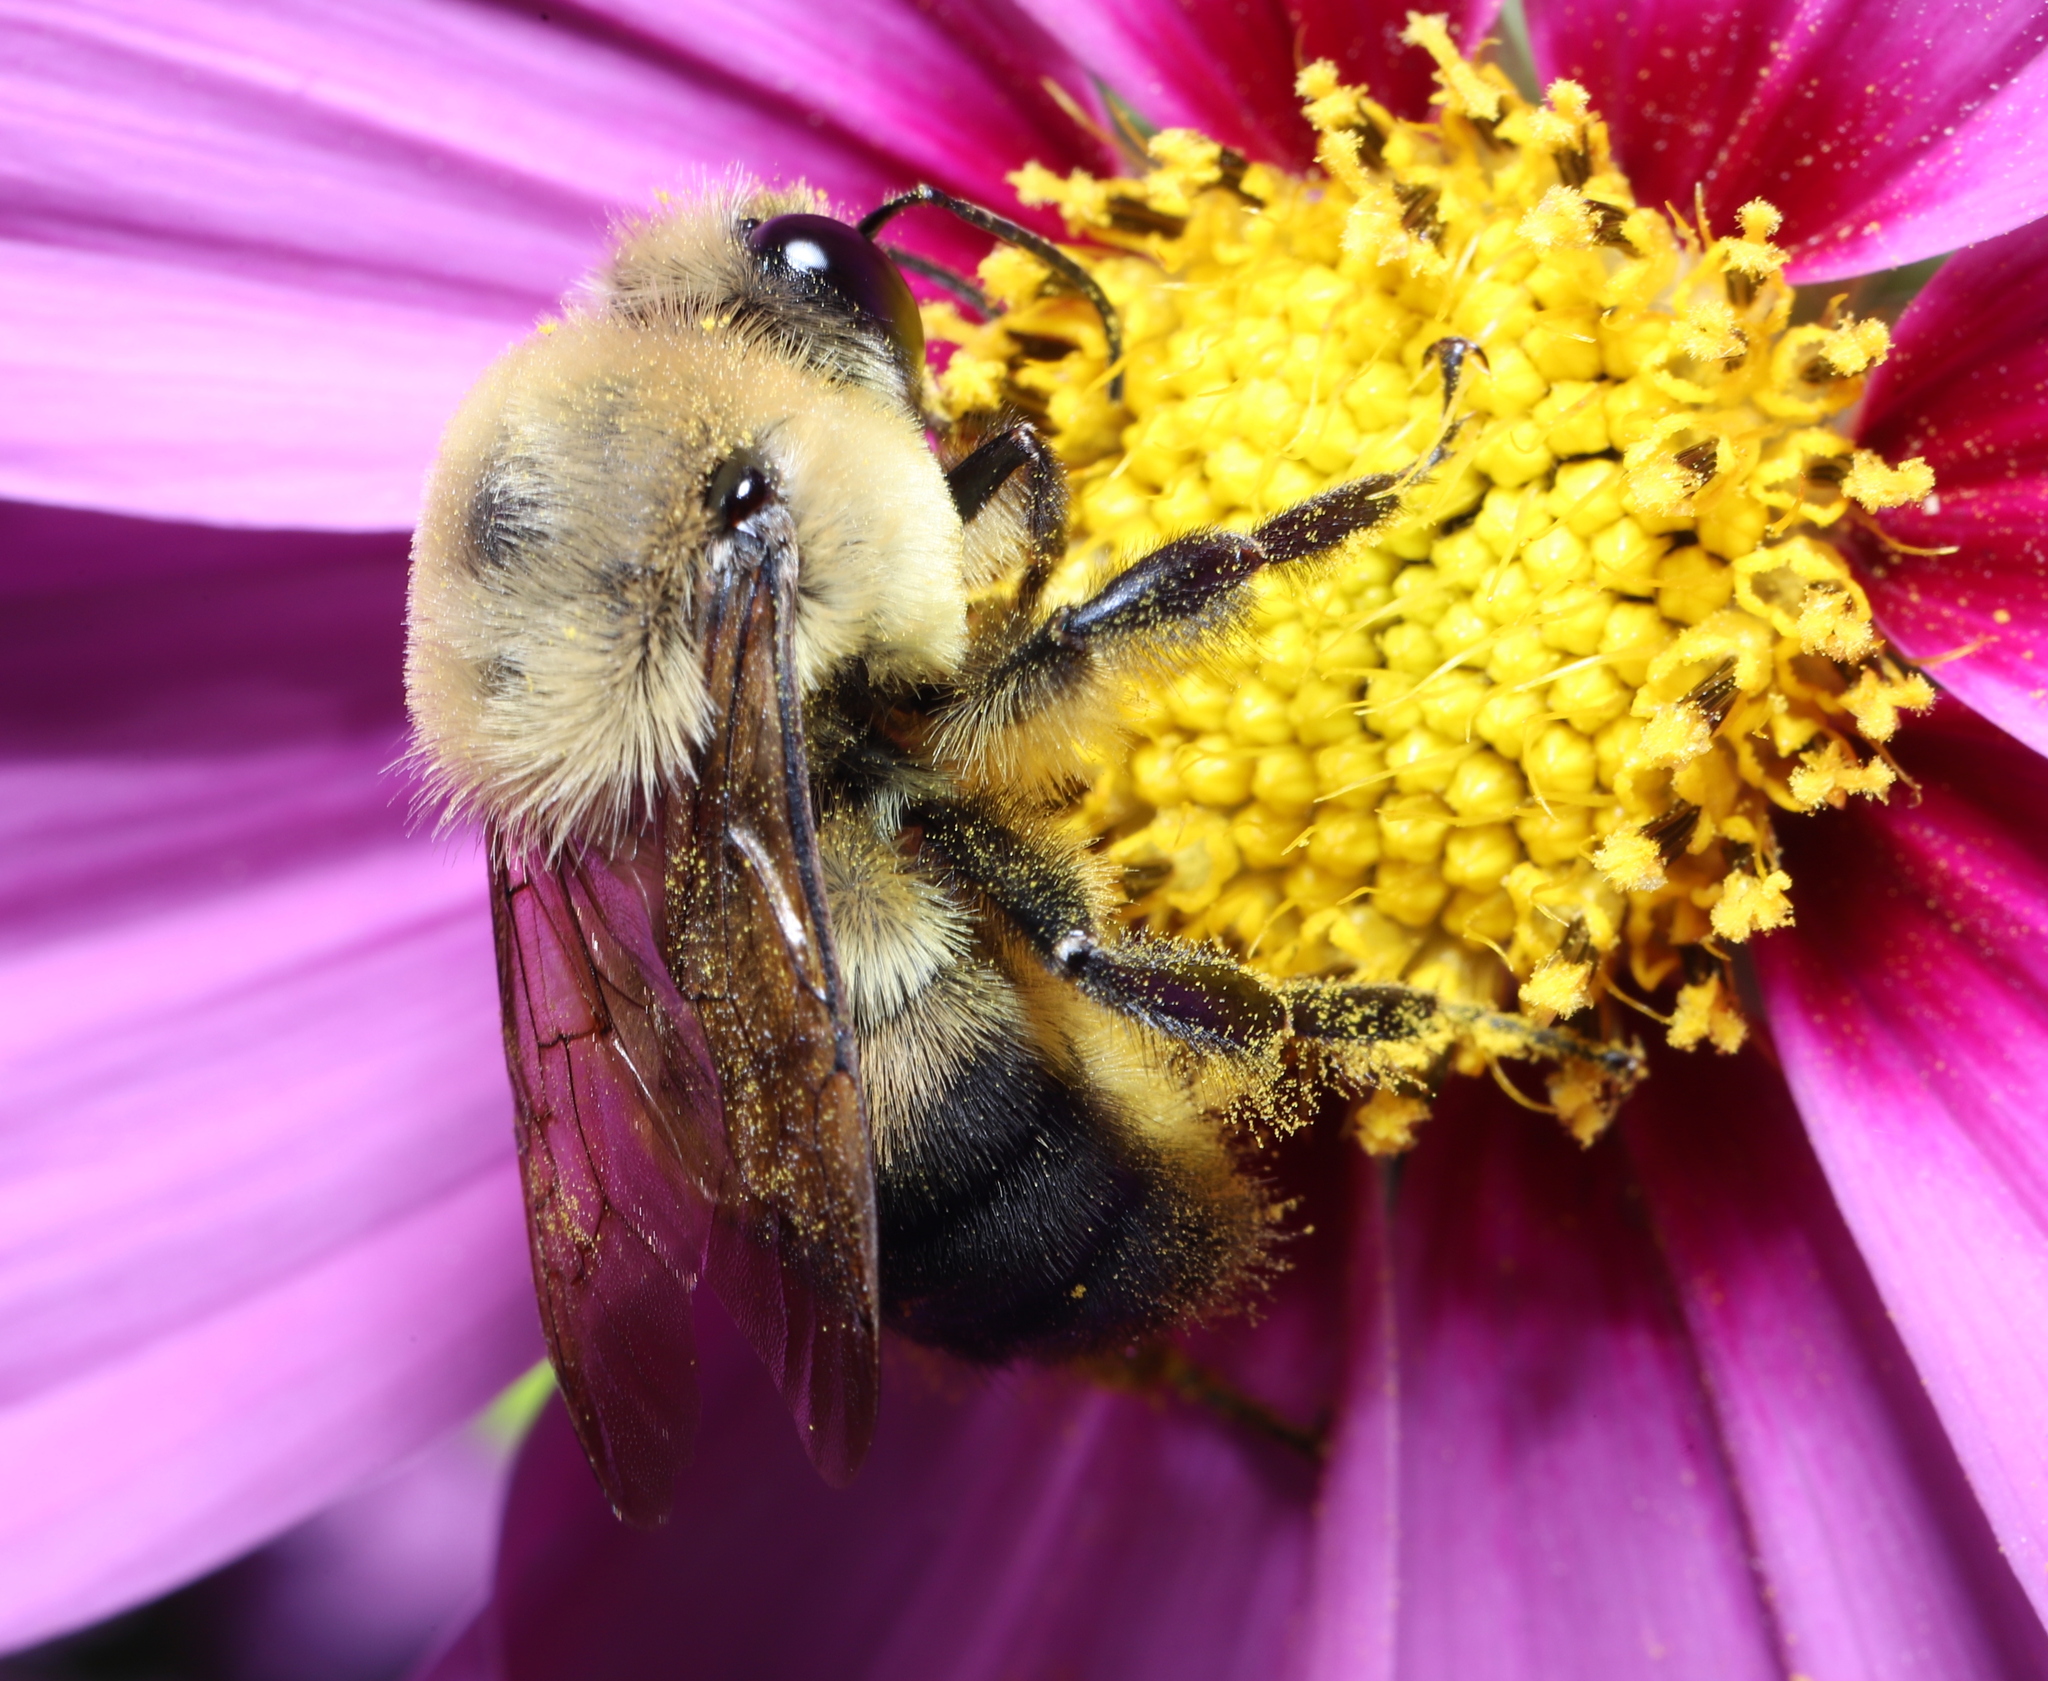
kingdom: Animalia
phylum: Arthropoda
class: Insecta
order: Hymenoptera
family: Apidae
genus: Bombus
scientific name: Bombus griseocollis
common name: Brown-belted bumble bee
